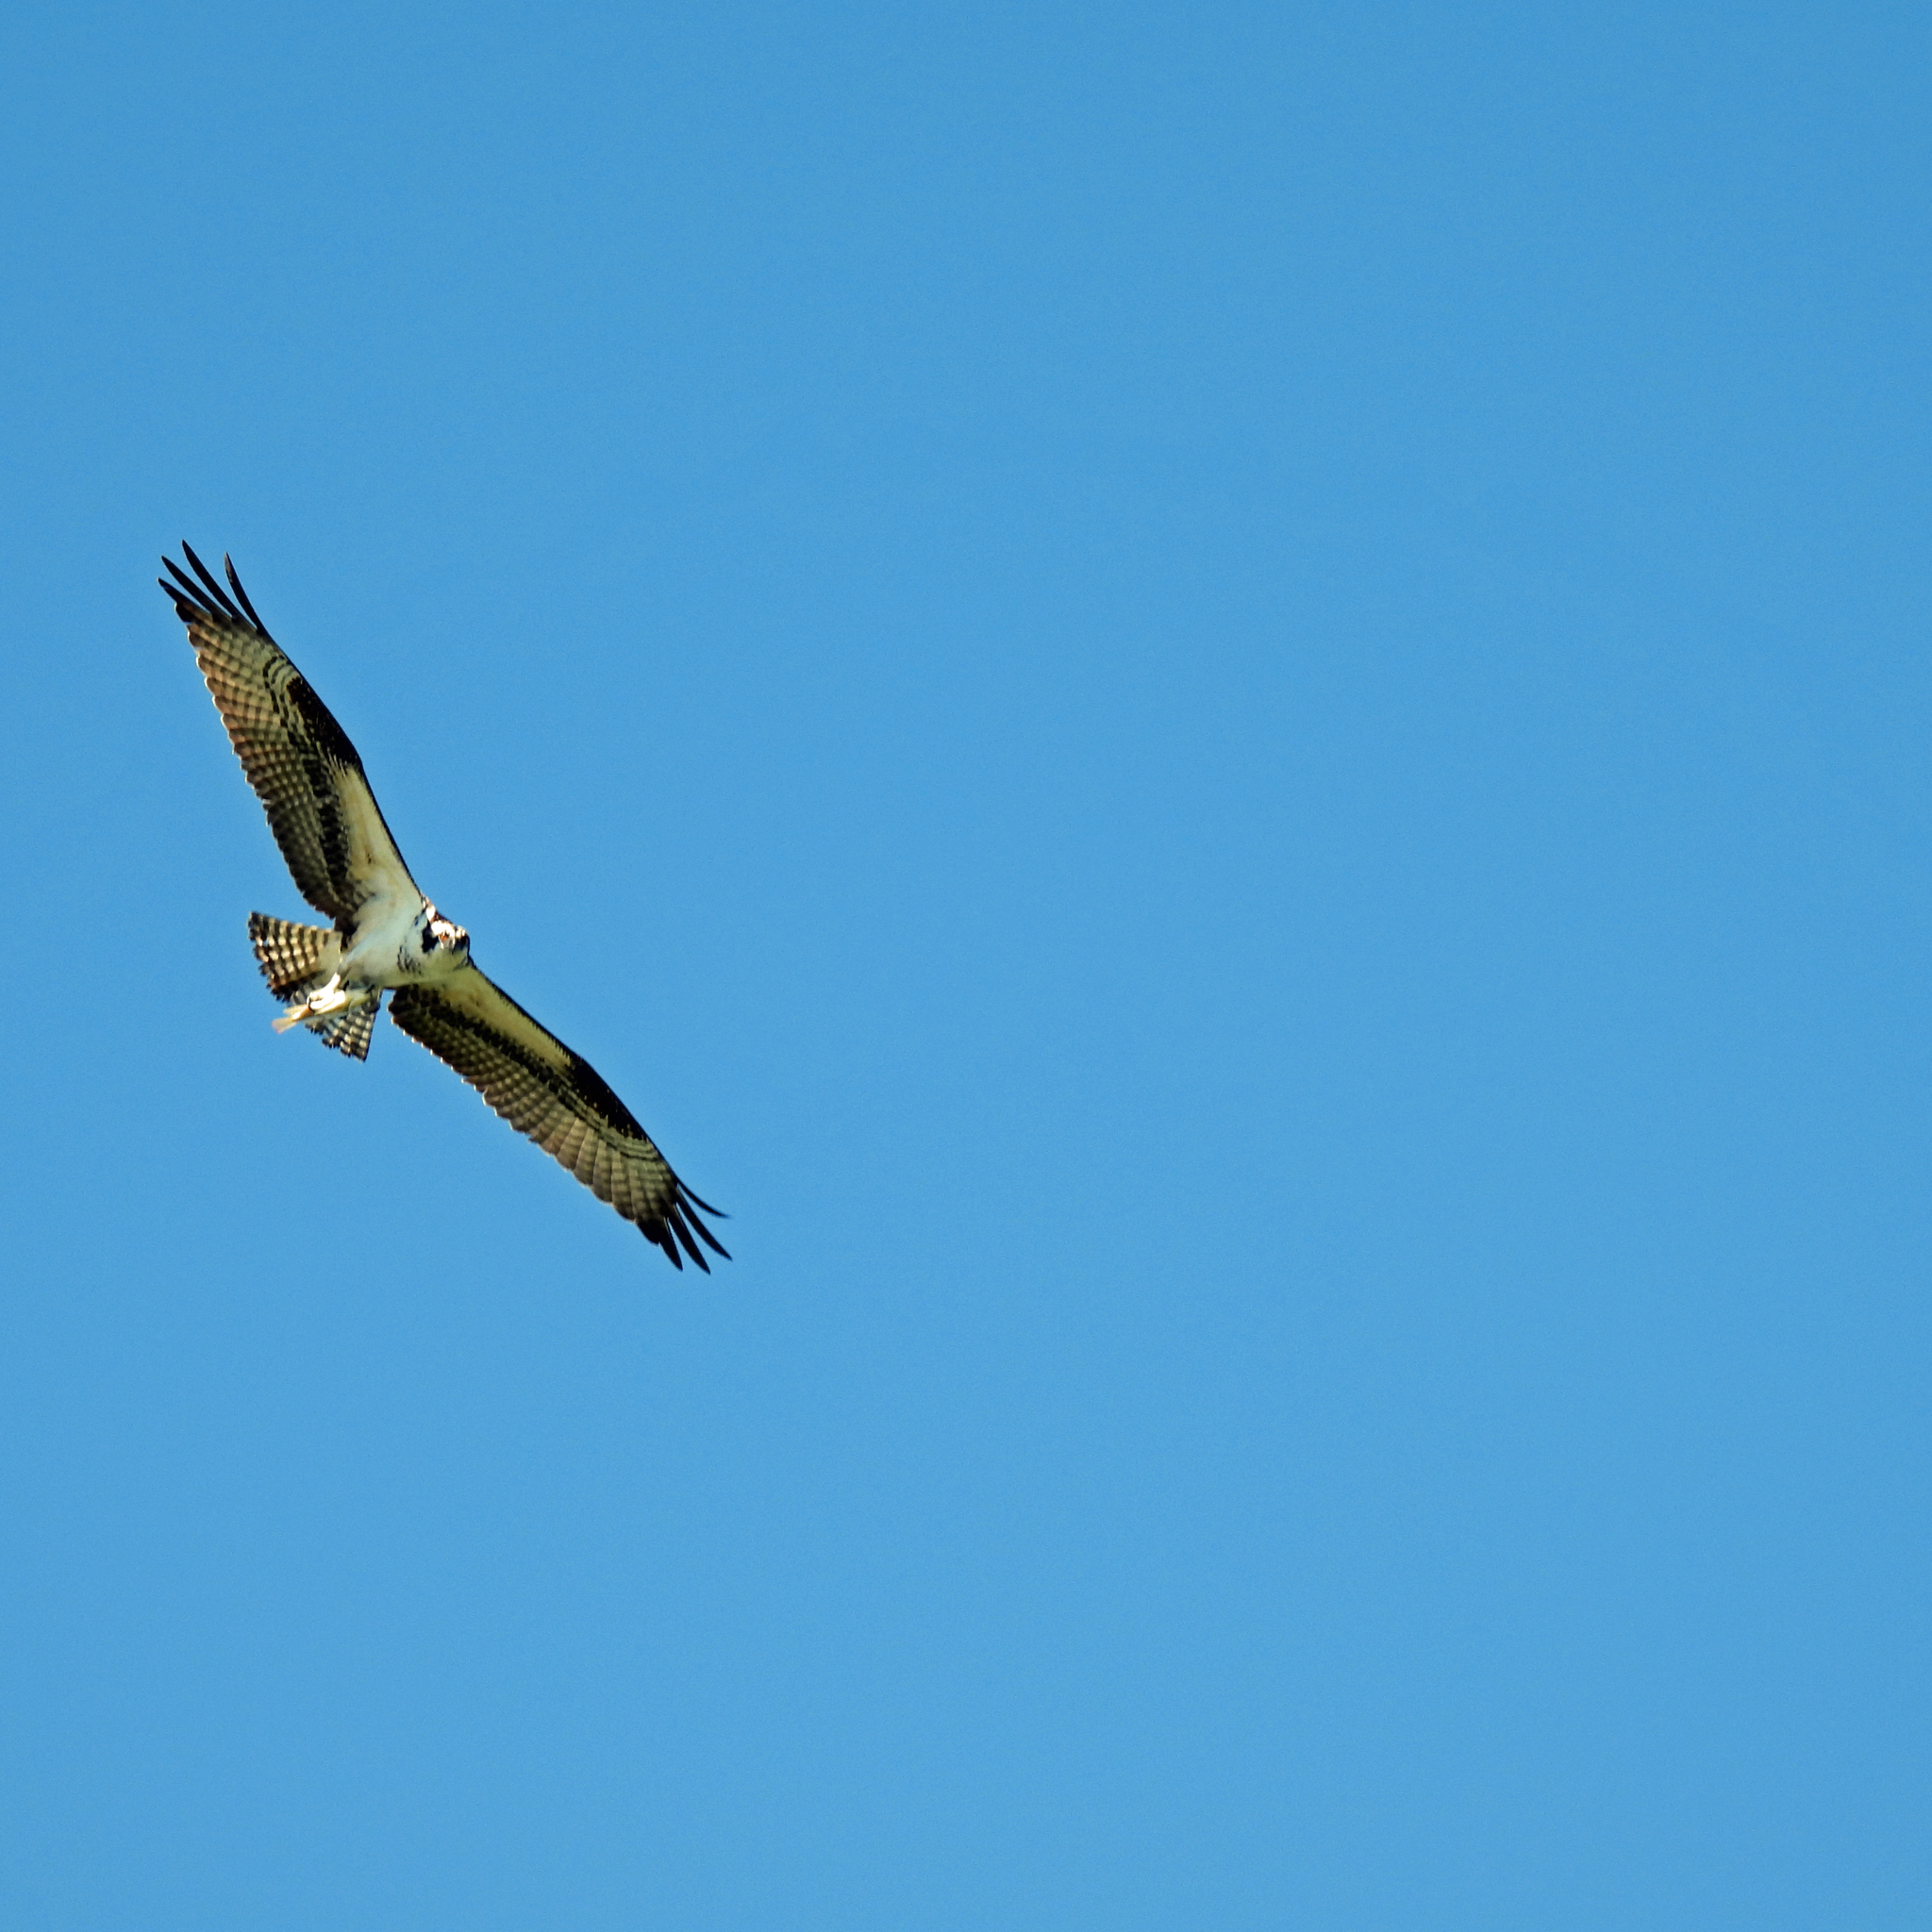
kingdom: Animalia
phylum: Chordata
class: Aves
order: Accipitriformes
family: Pandionidae
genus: Pandion
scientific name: Pandion haliaetus
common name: Osprey
